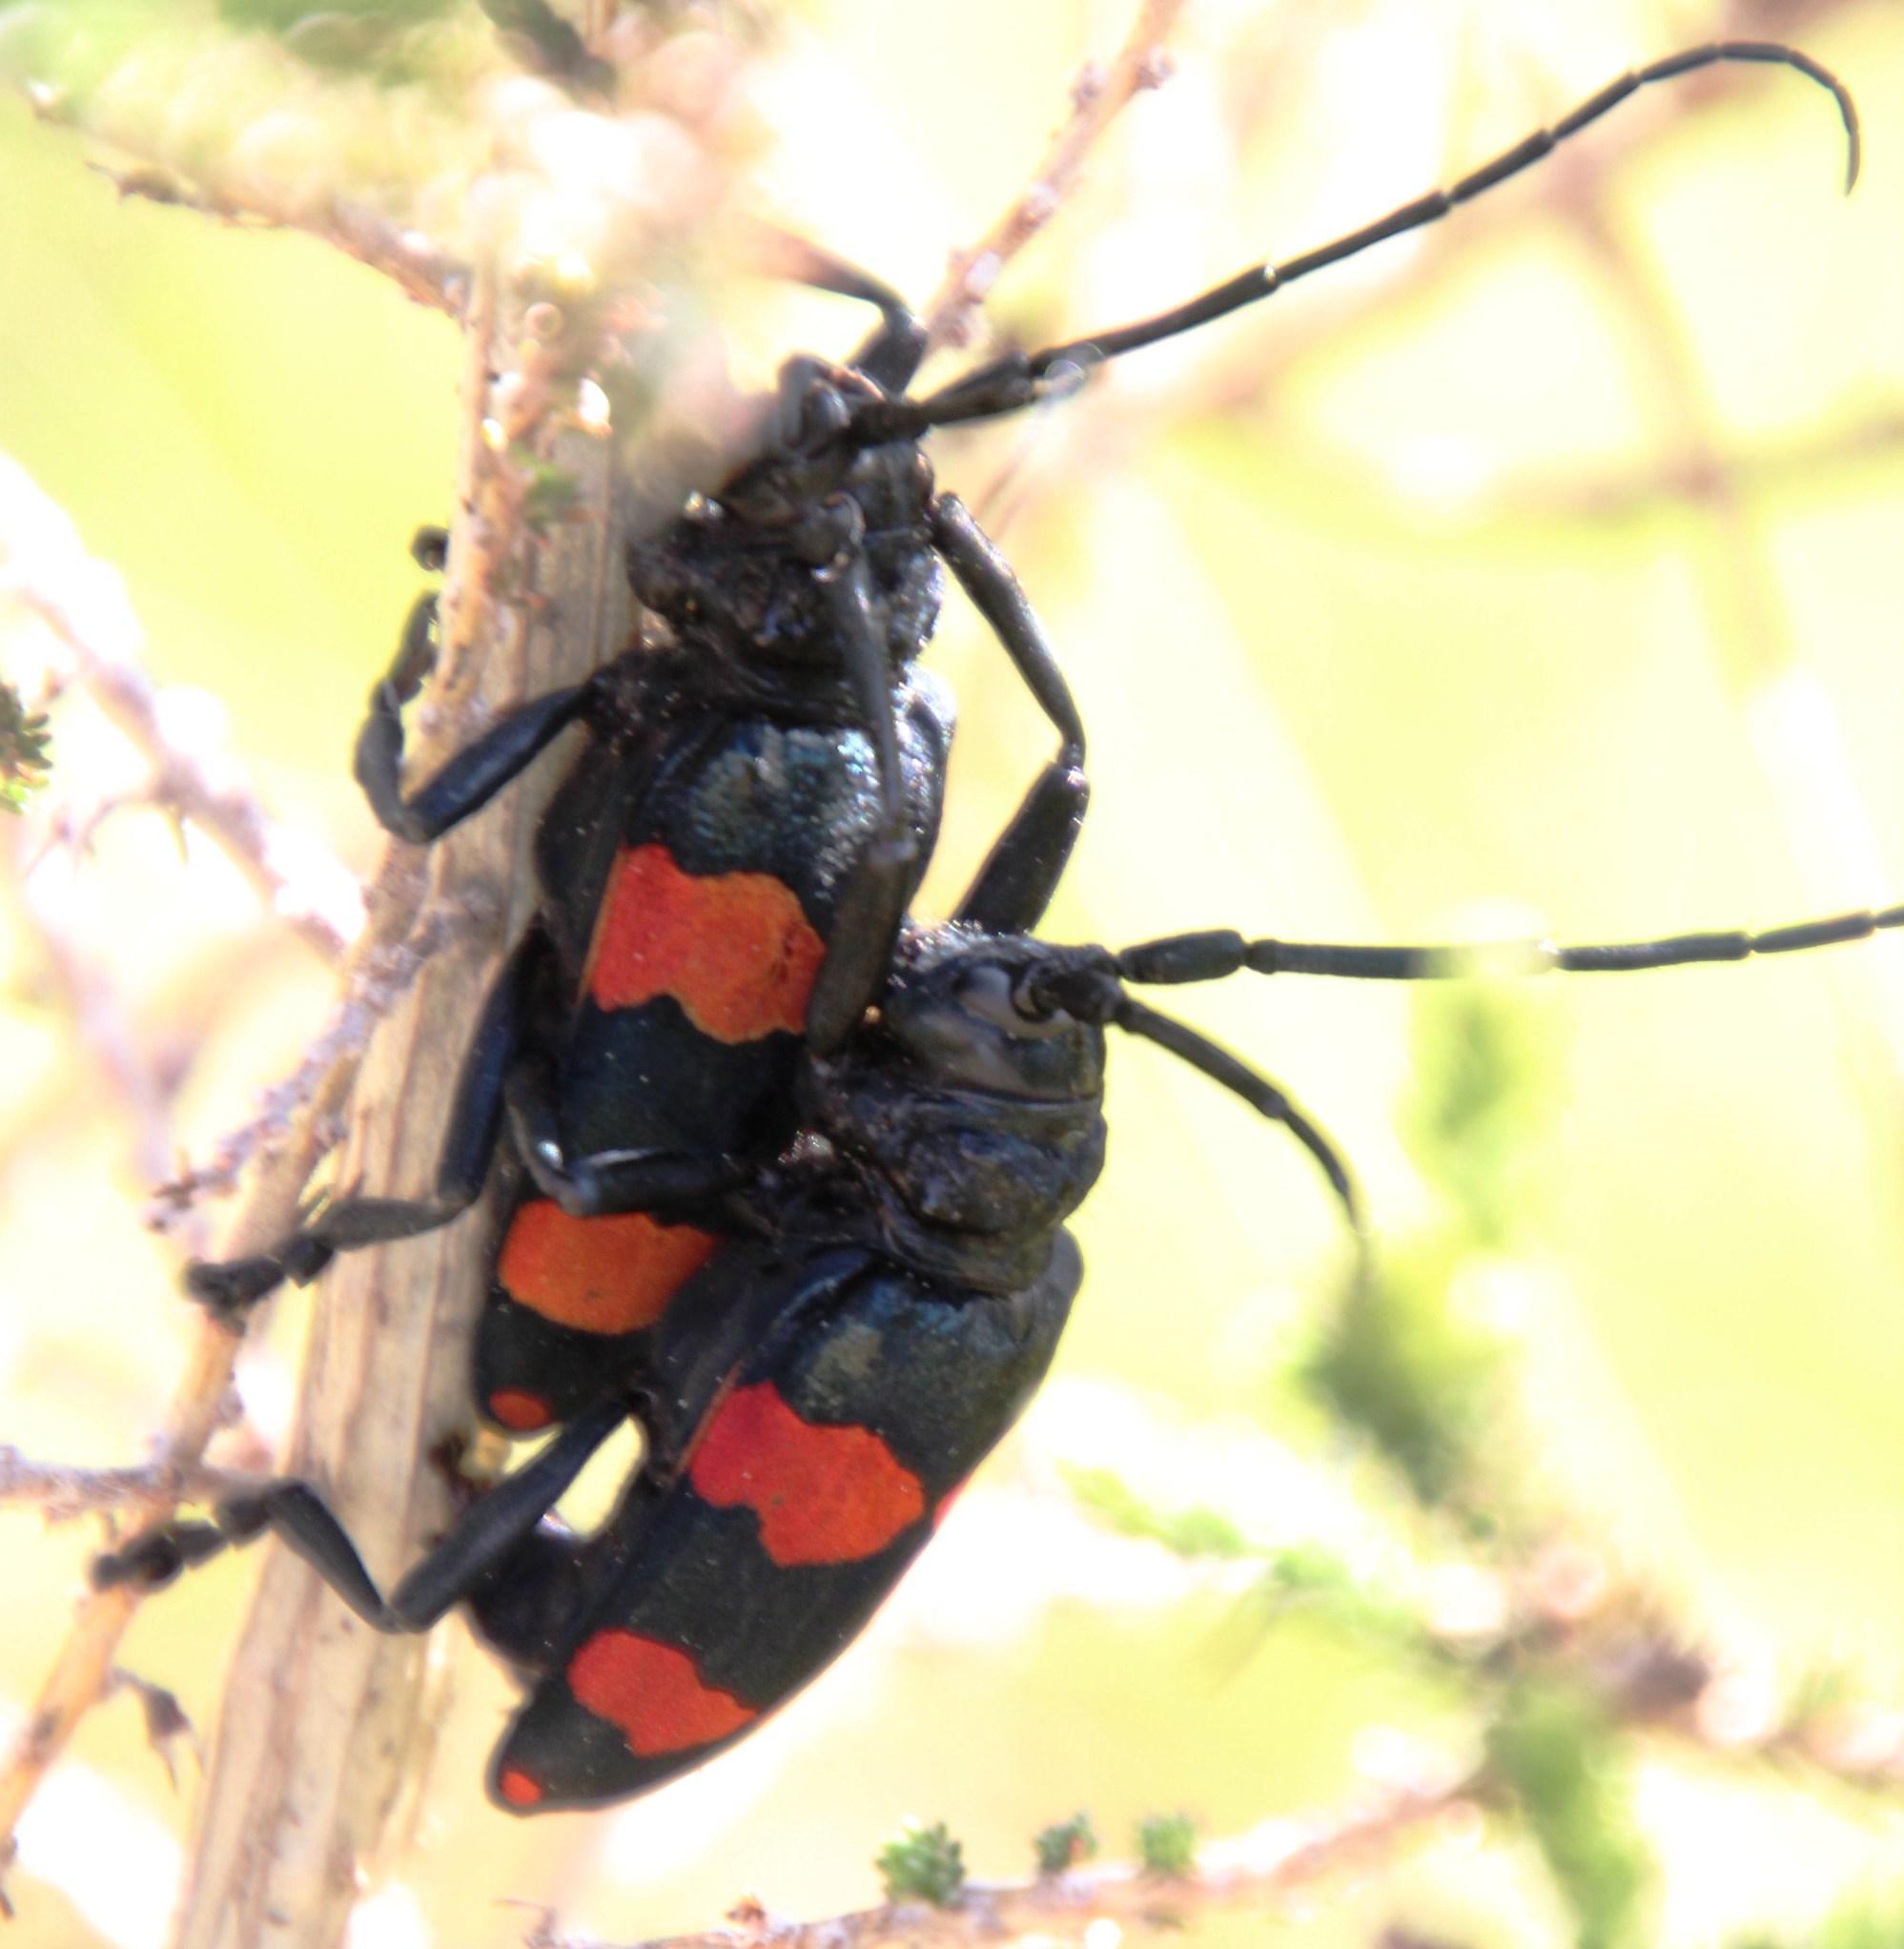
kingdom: Animalia
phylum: Arthropoda
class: Insecta
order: Coleoptera
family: Cerambycidae
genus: Ceroplesis
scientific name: Ceroplesis aethiops
